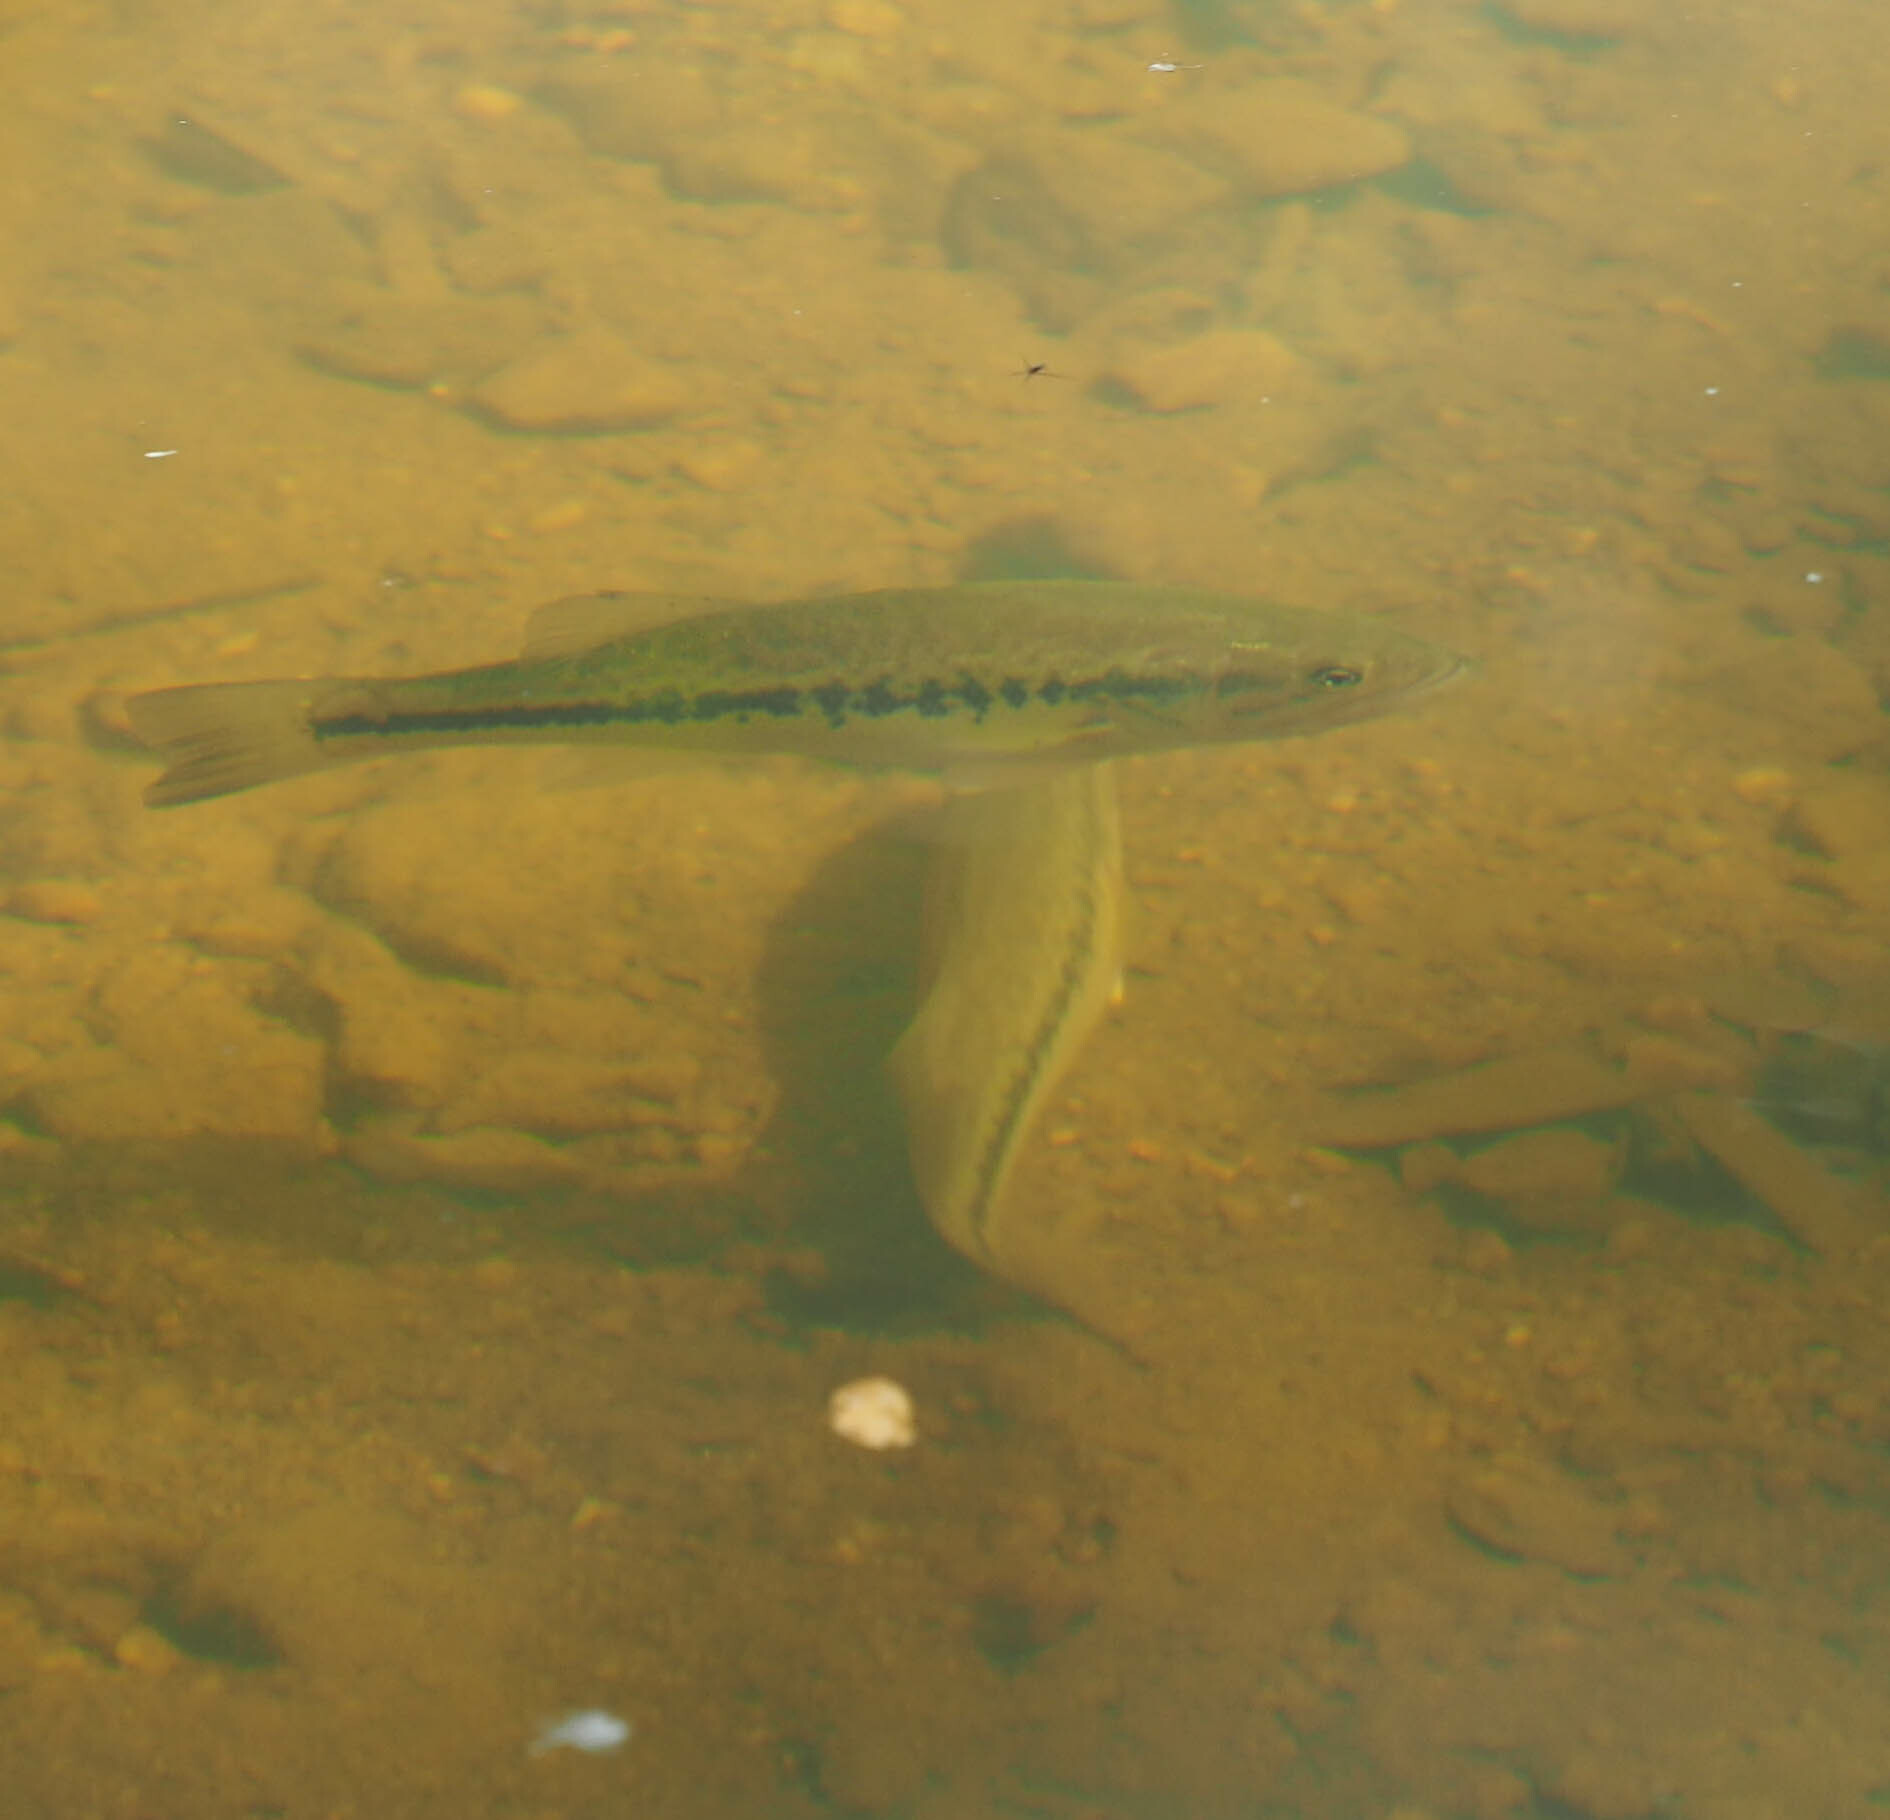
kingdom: Animalia
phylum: Chordata
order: Perciformes
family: Centrarchidae
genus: Micropterus
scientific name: Micropterus
